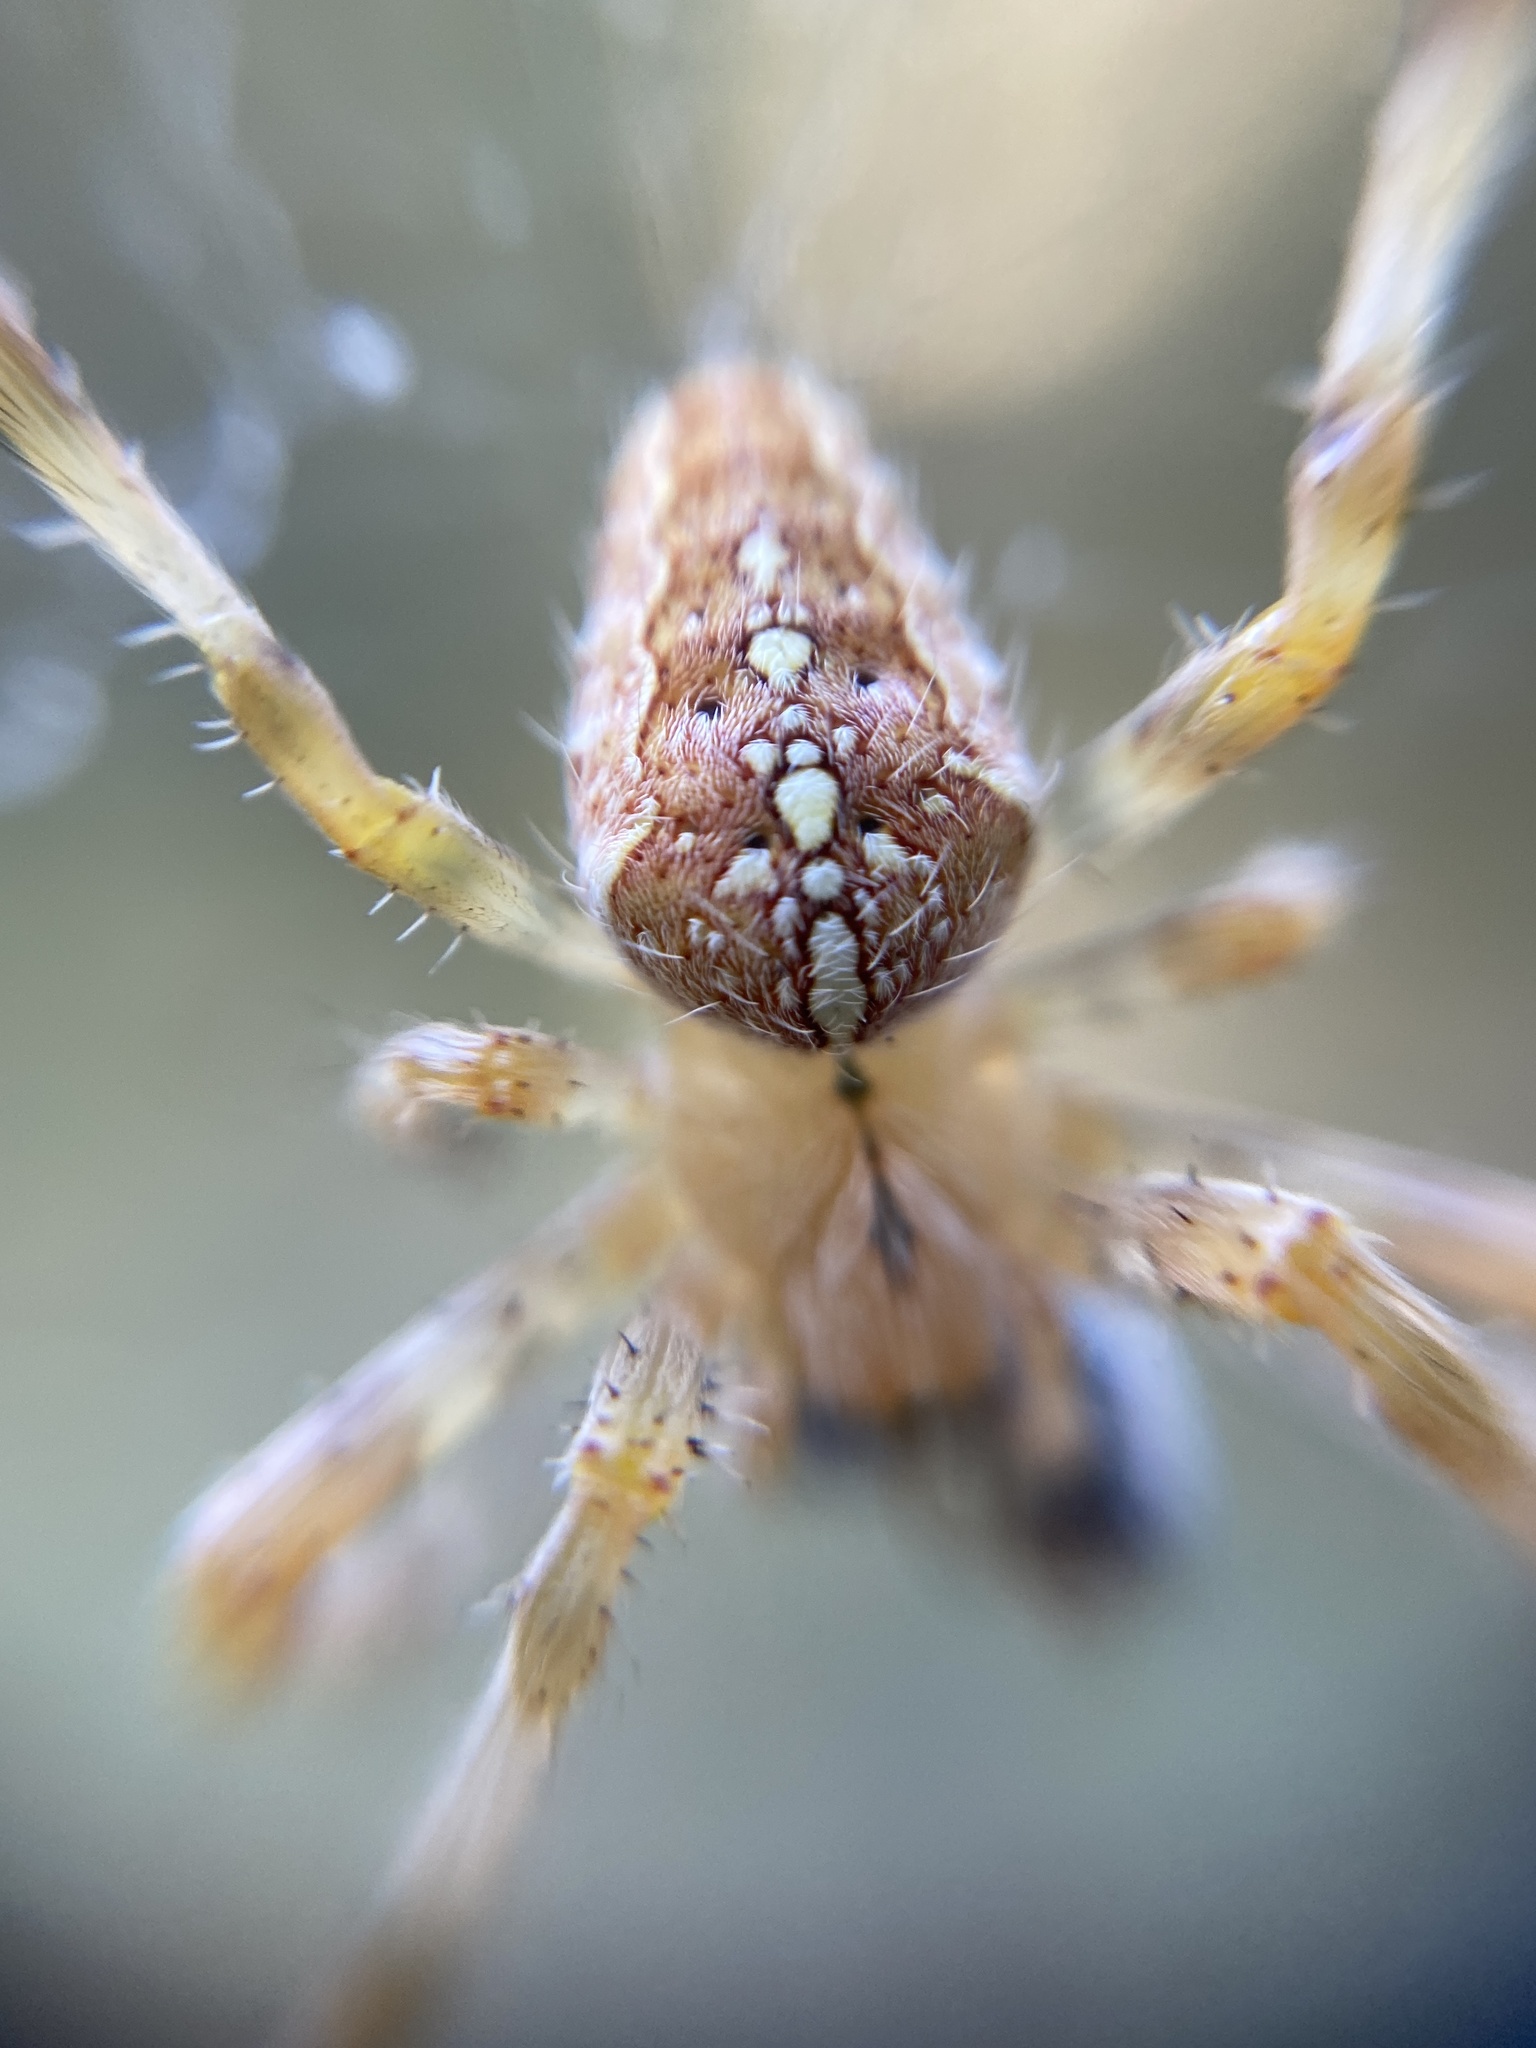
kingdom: Animalia
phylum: Arthropoda
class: Arachnida
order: Araneae
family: Araneidae
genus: Araneus
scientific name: Araneus diadematus
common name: Cross orbweaver
